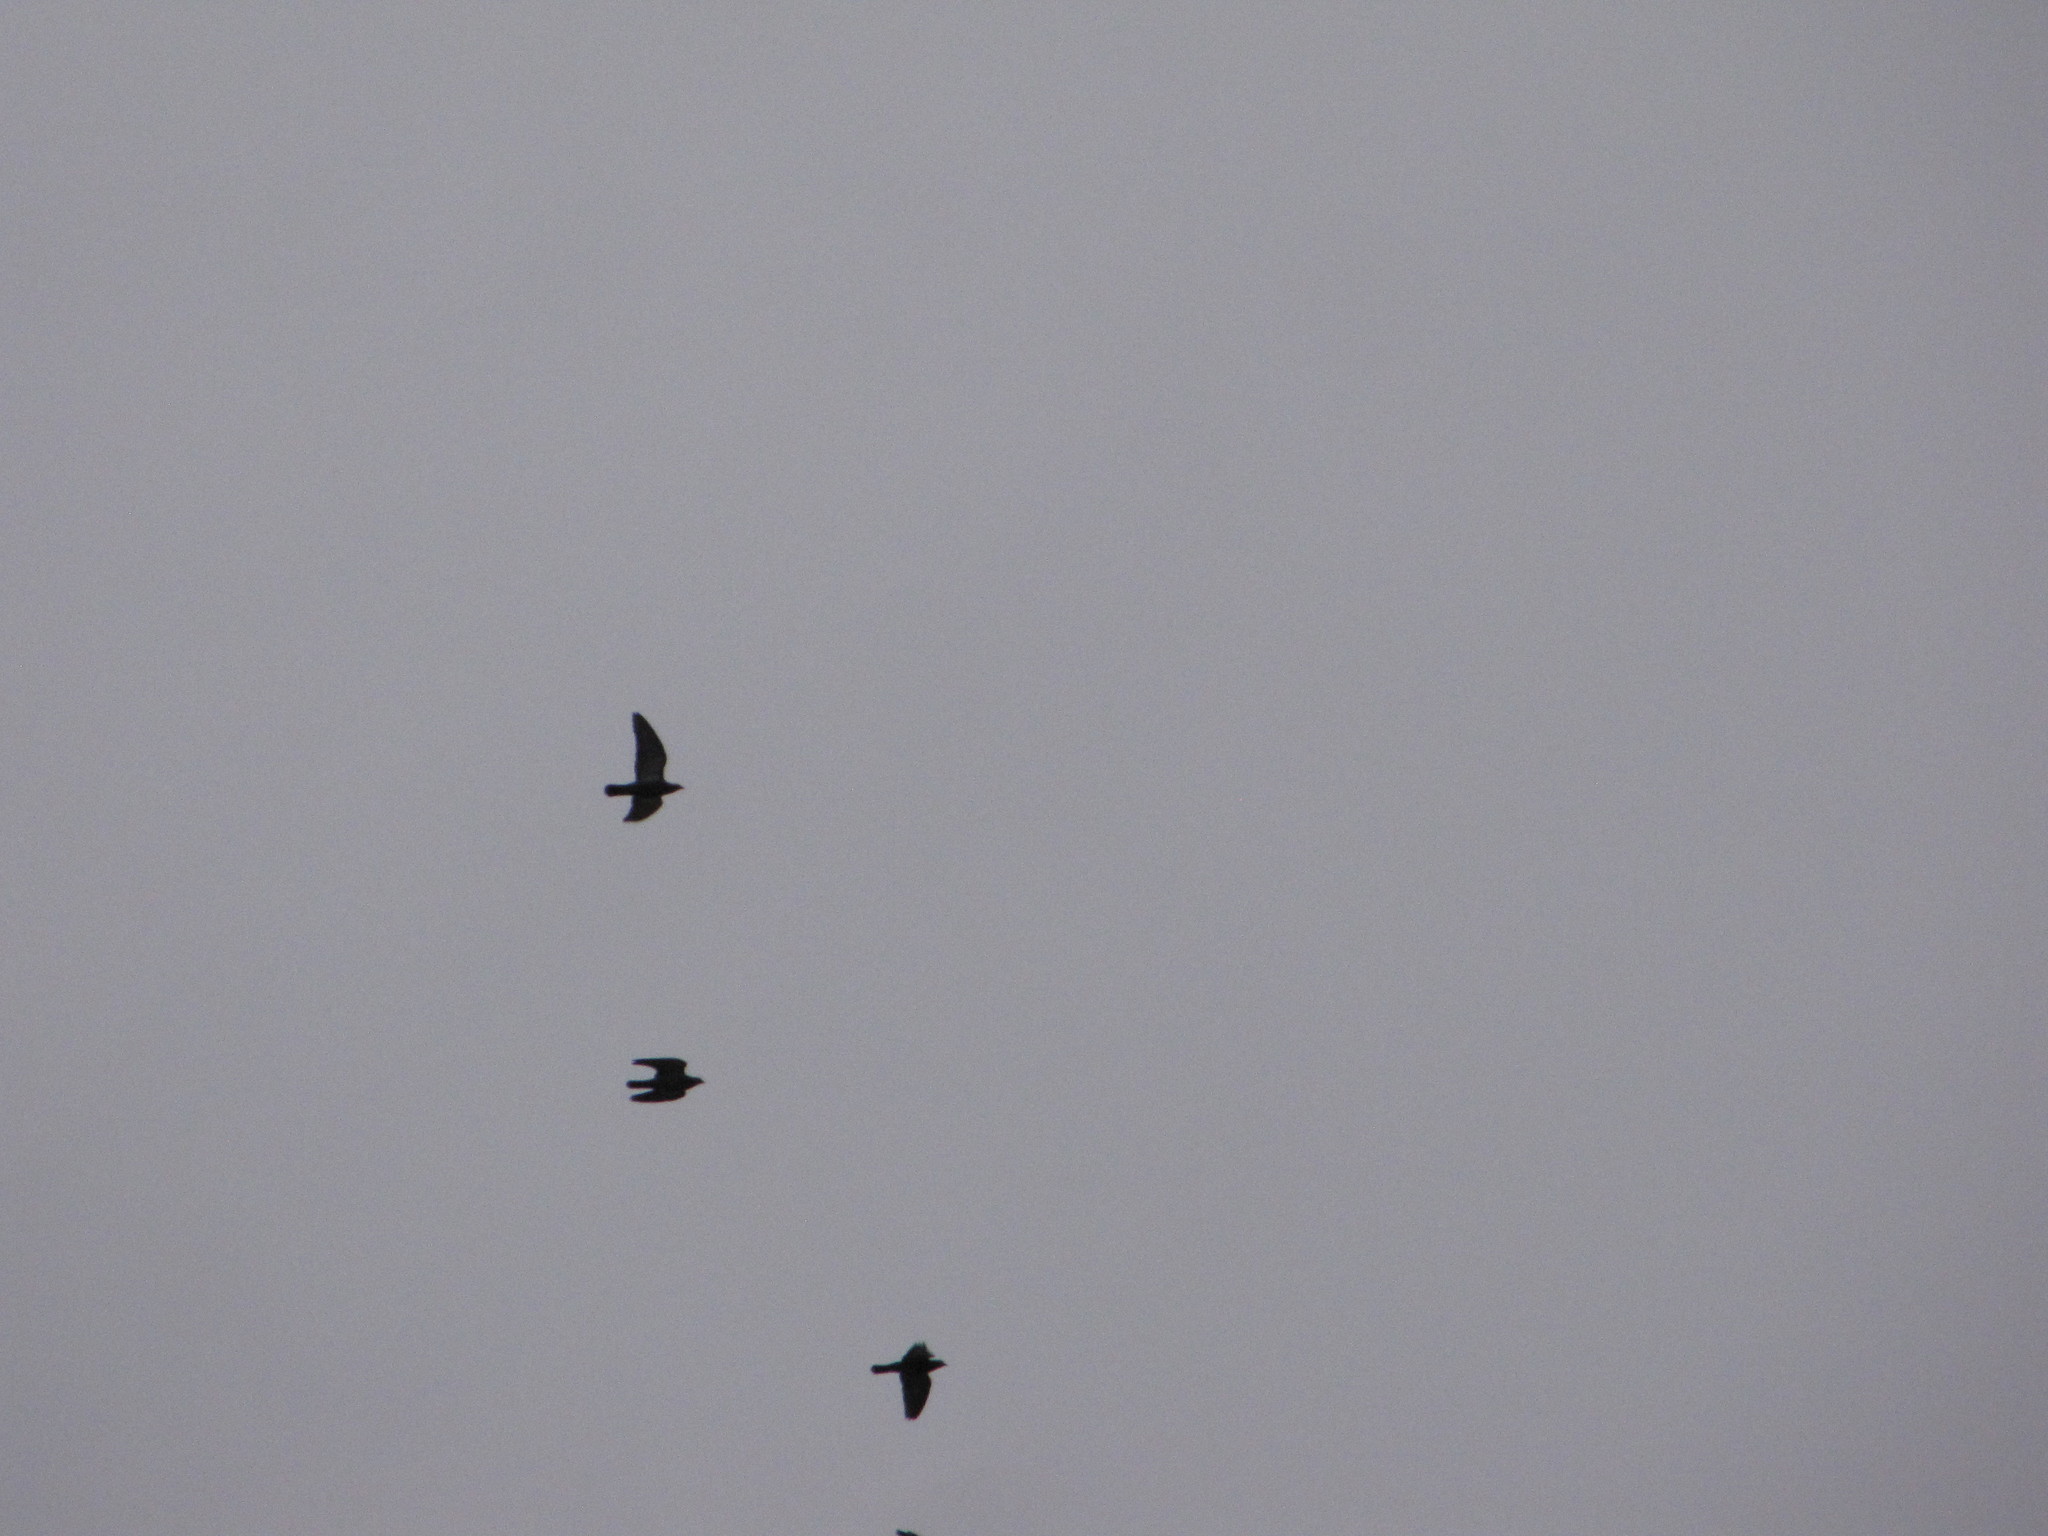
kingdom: Animalia
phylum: Chordata
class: Aves
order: Columbiformes
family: Columbidae
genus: Columba
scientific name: Columba livia
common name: Rock pigeon
